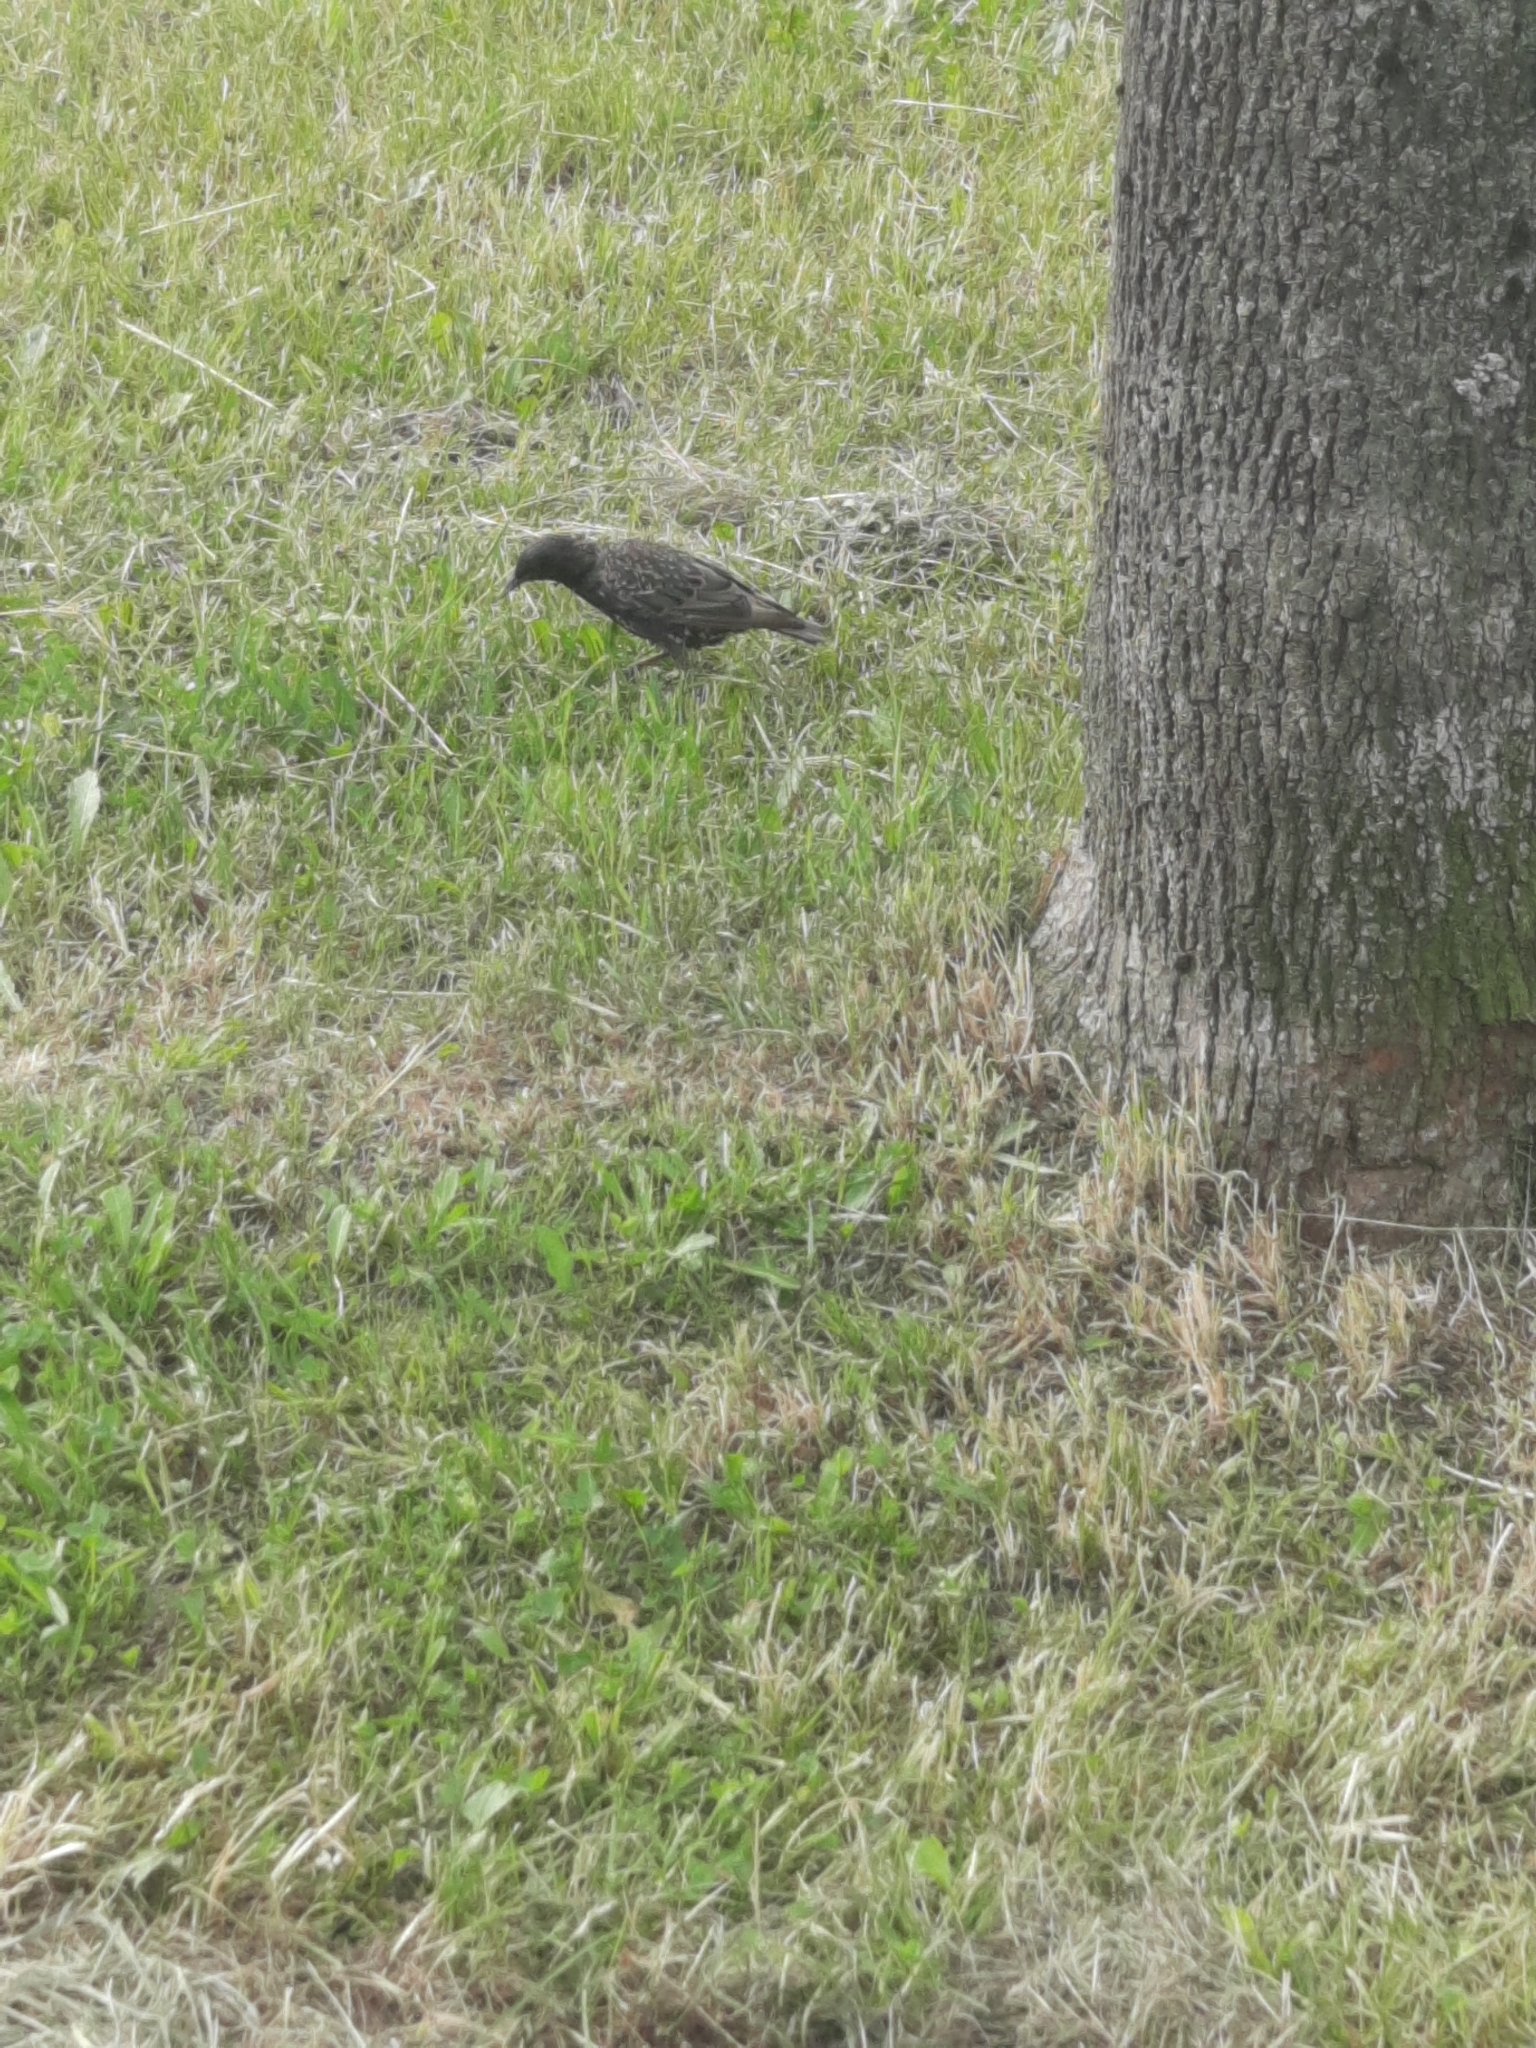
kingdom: Animalia
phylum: Chordata
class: Aves
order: Passeriformes
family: Sturnidae
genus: Sturnus
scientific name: Sturnus vulgaris
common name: Common starling
